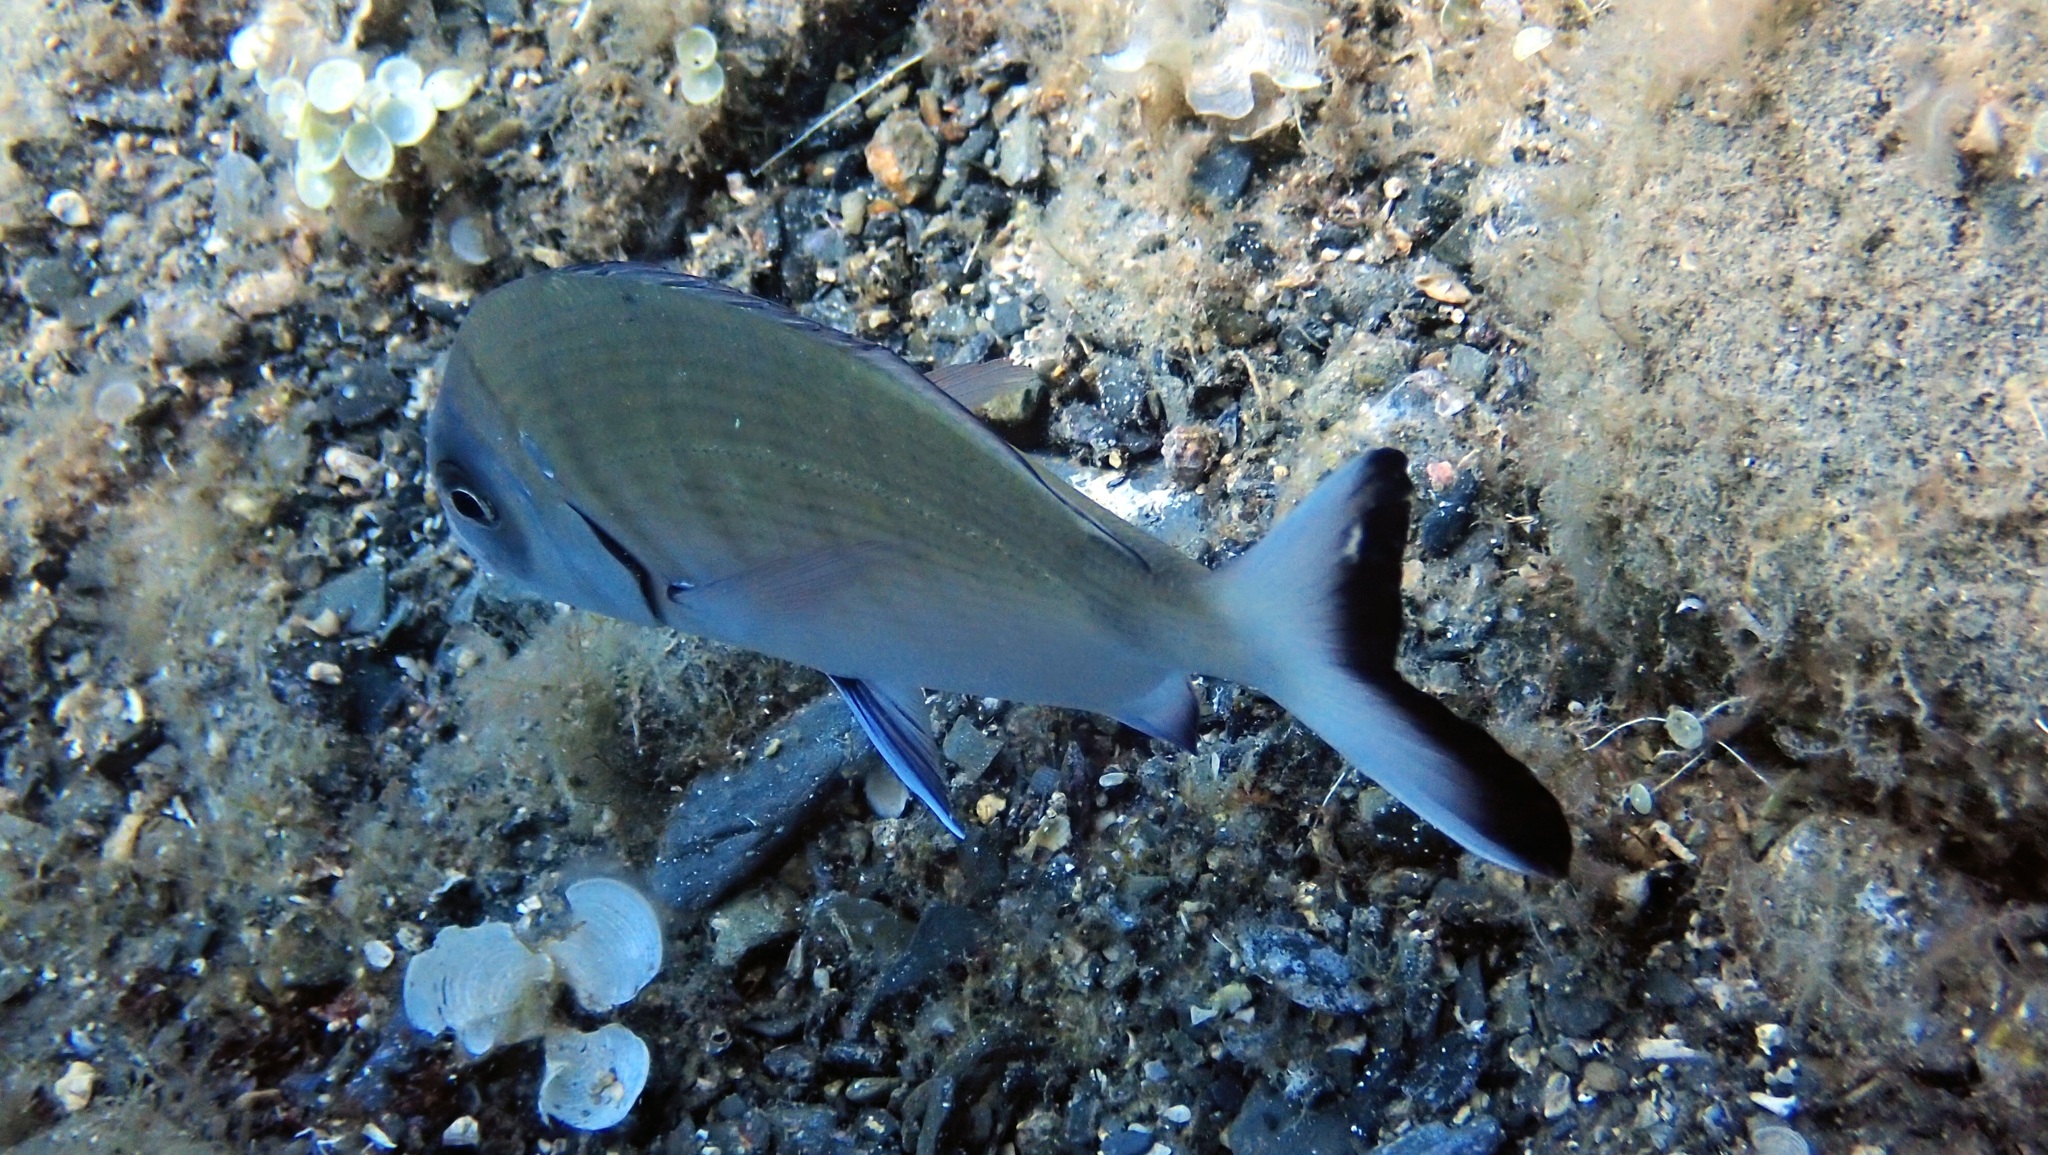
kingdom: Animalia
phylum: Chordata
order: Perciformes
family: Sparidae
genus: Diplodus
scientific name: Diplodus sargus
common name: White seabream
